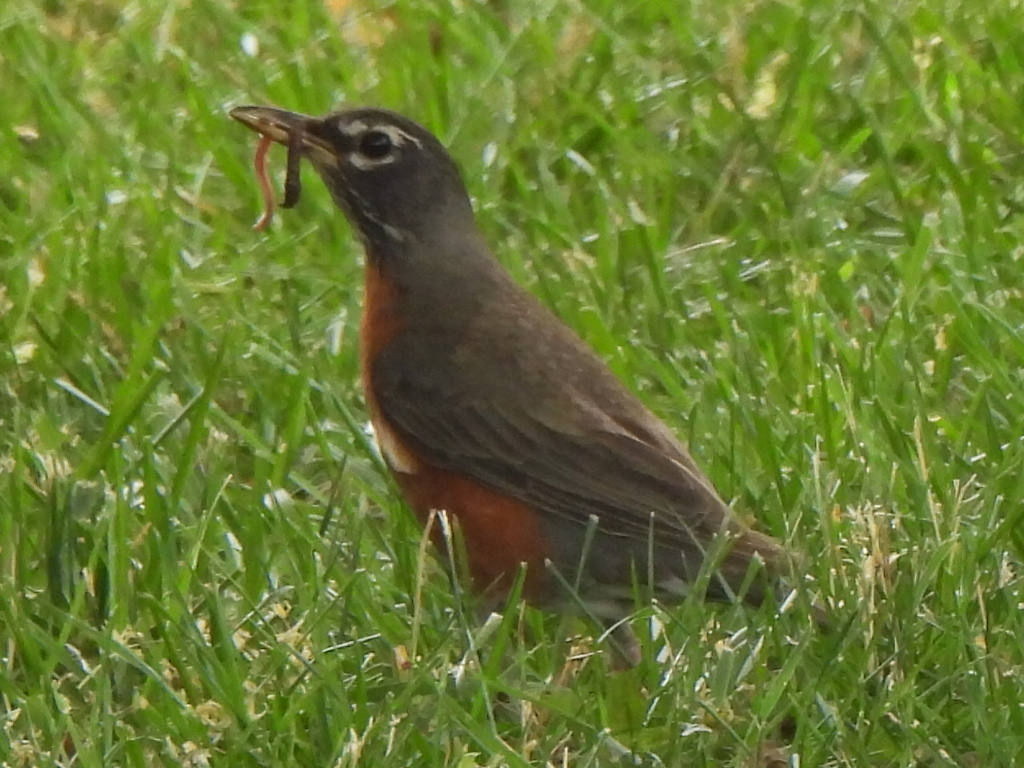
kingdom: Animalia
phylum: Chordata
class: Aves
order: Passeriformes
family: Turdidae
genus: Turdus
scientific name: Turdus migratorius
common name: American robin
